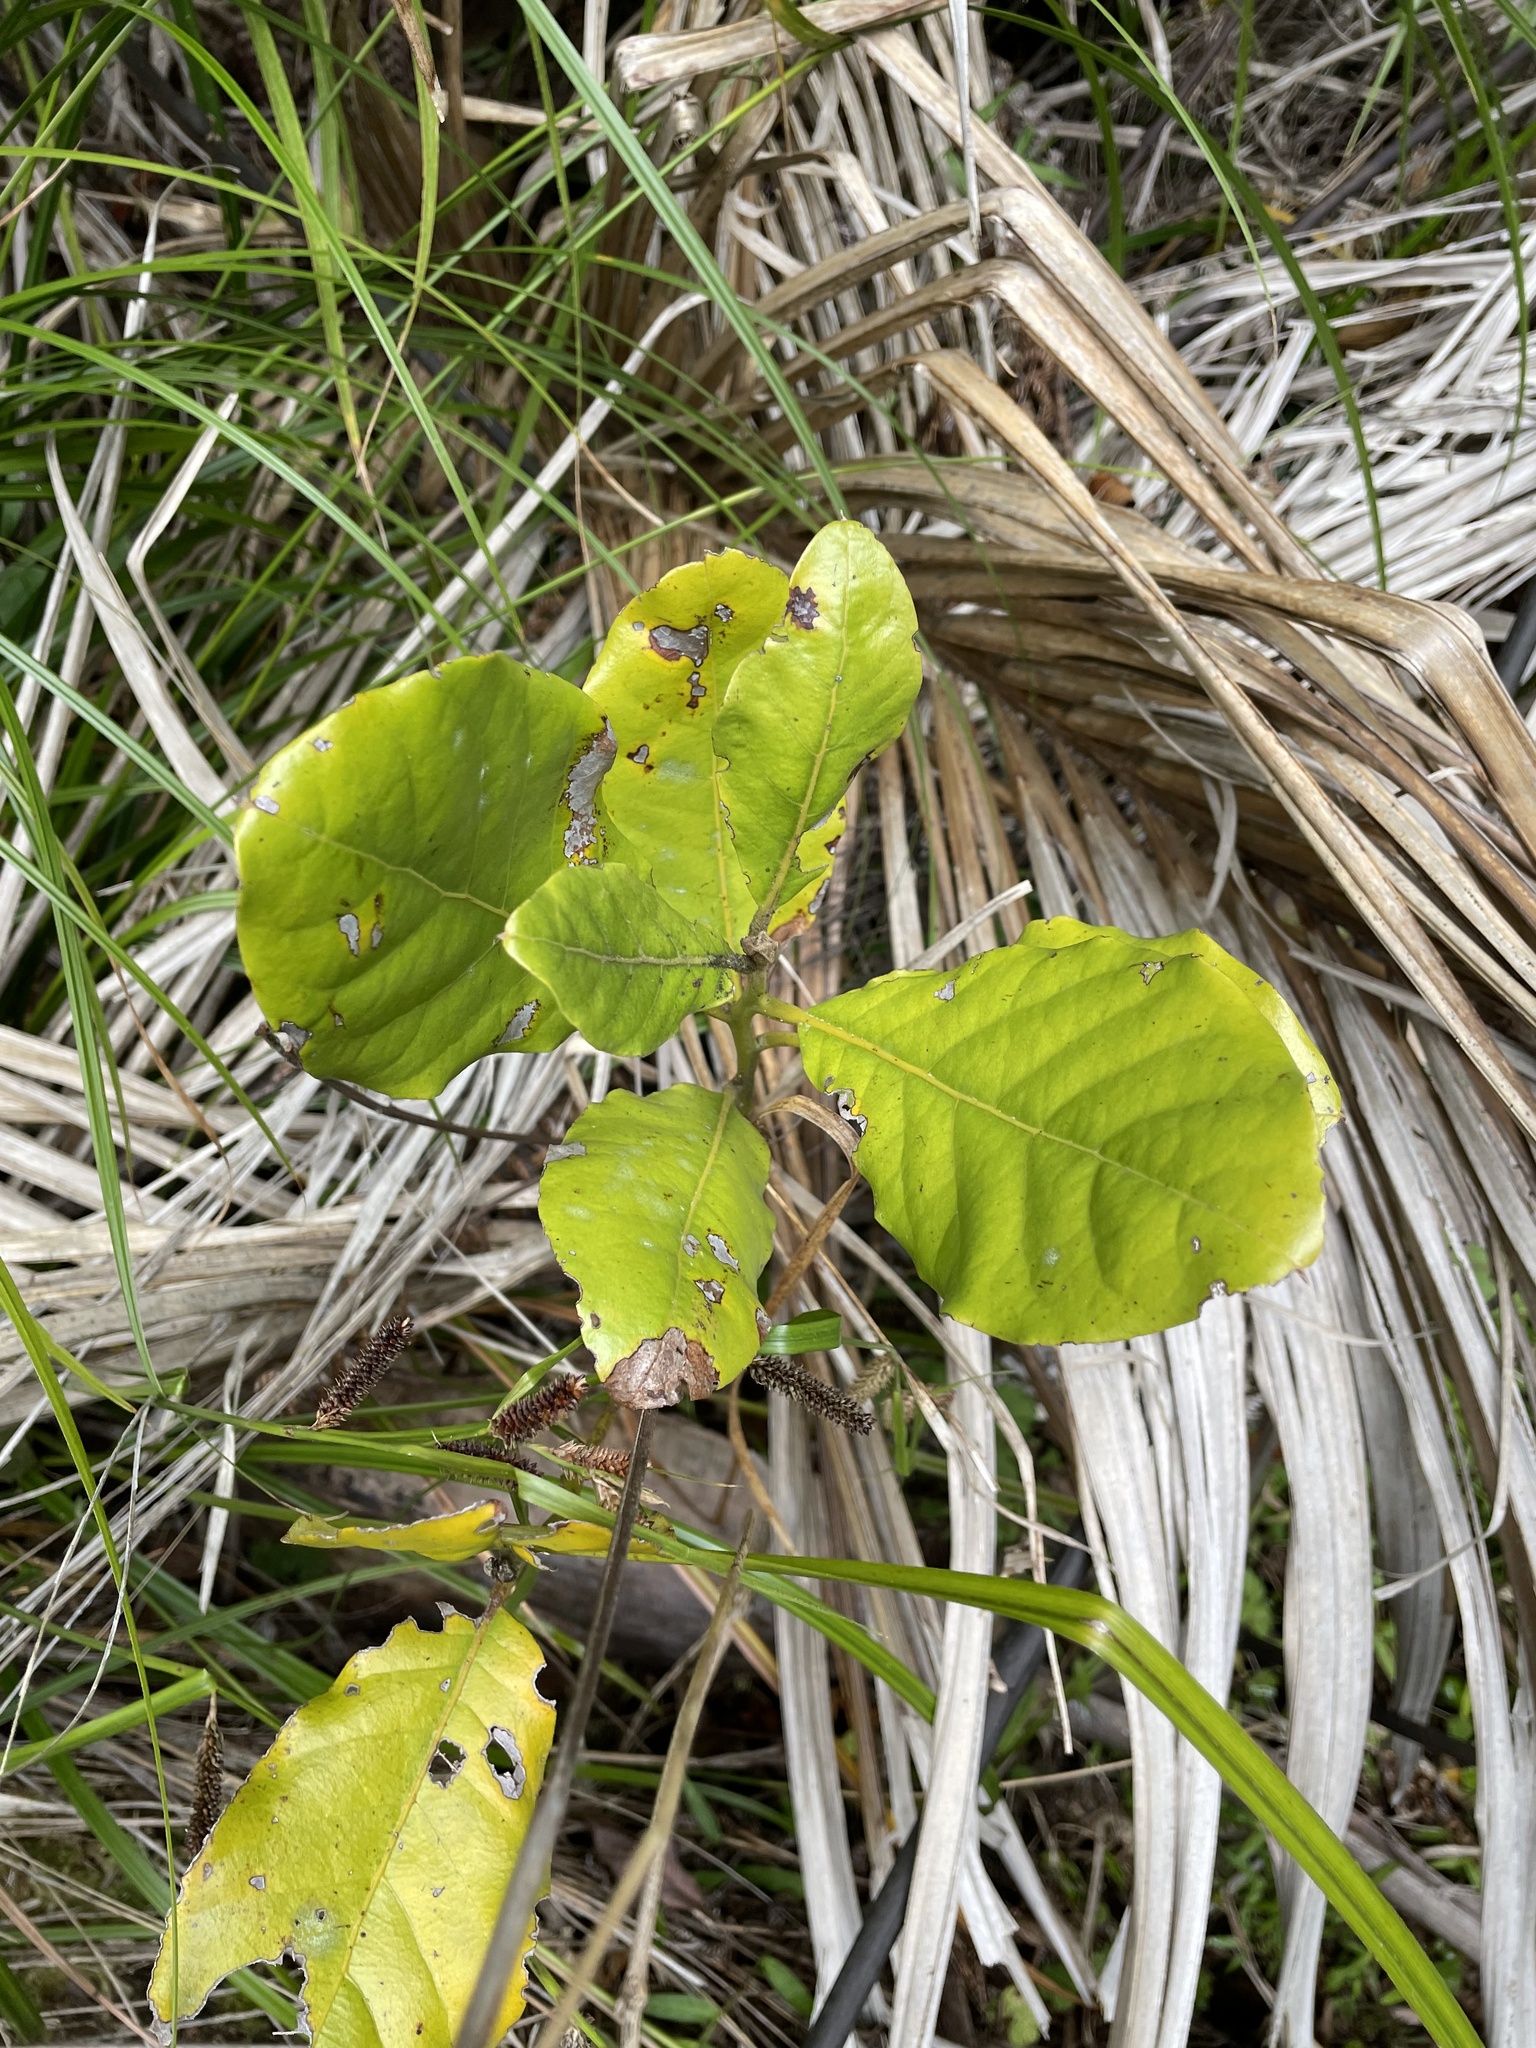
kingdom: Plantae
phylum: Tracheophyta
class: Magnoliopsida
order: Laurales
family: Lauraceae
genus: Beilschmiedia
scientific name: Beilschmiedia tarairi
